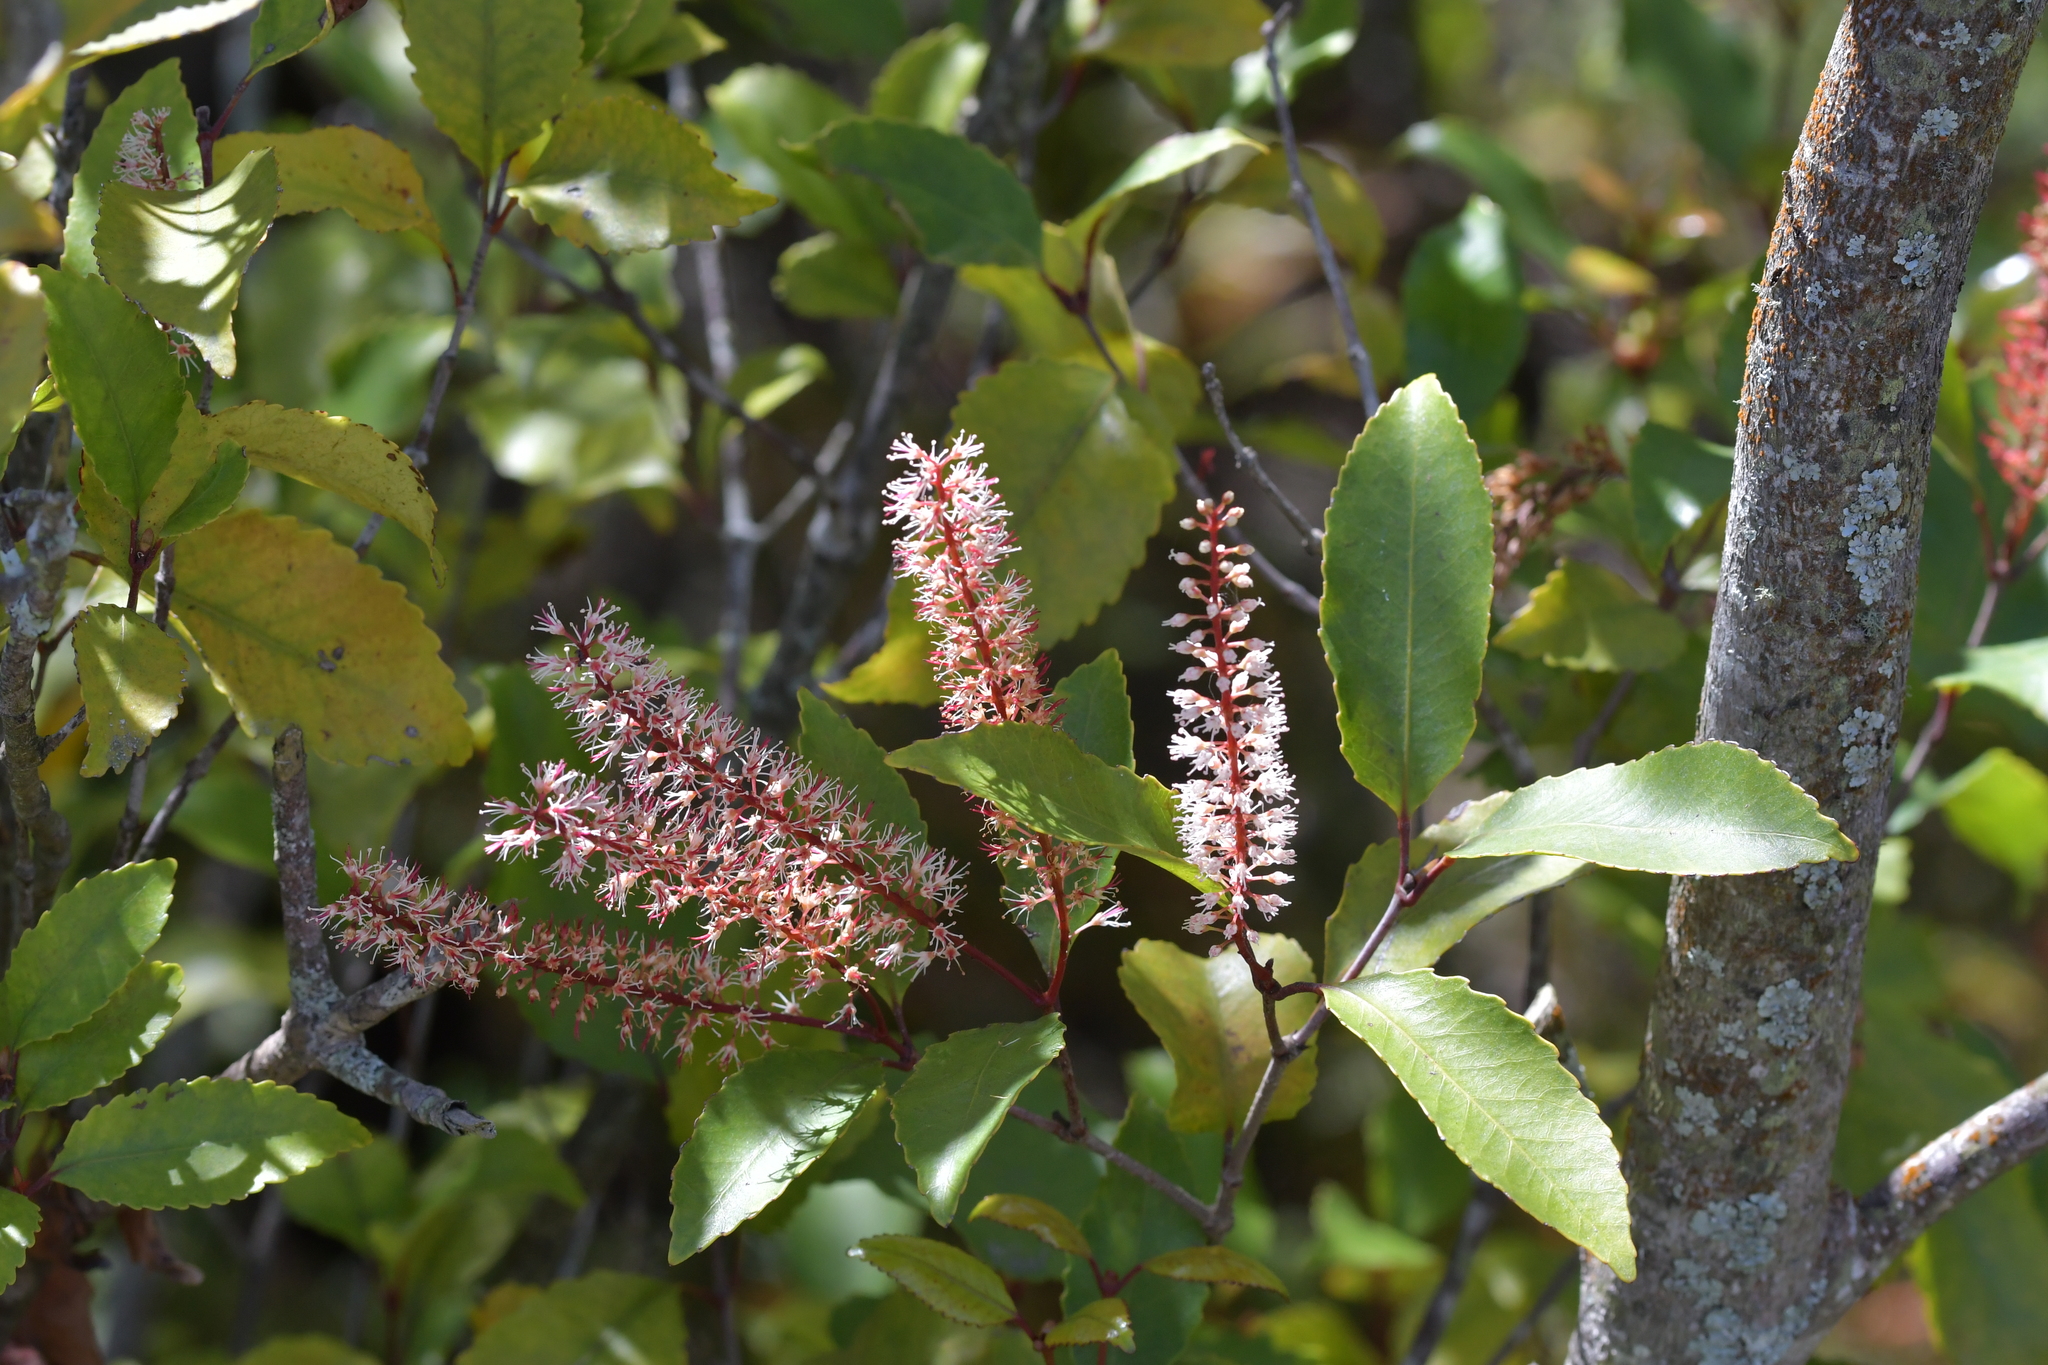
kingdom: Plantae
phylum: Tracheophyta
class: Magnoliopsida
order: Oxalidales
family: Cunoniaceae
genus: Pterophylla
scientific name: Pterophylla racemosa
